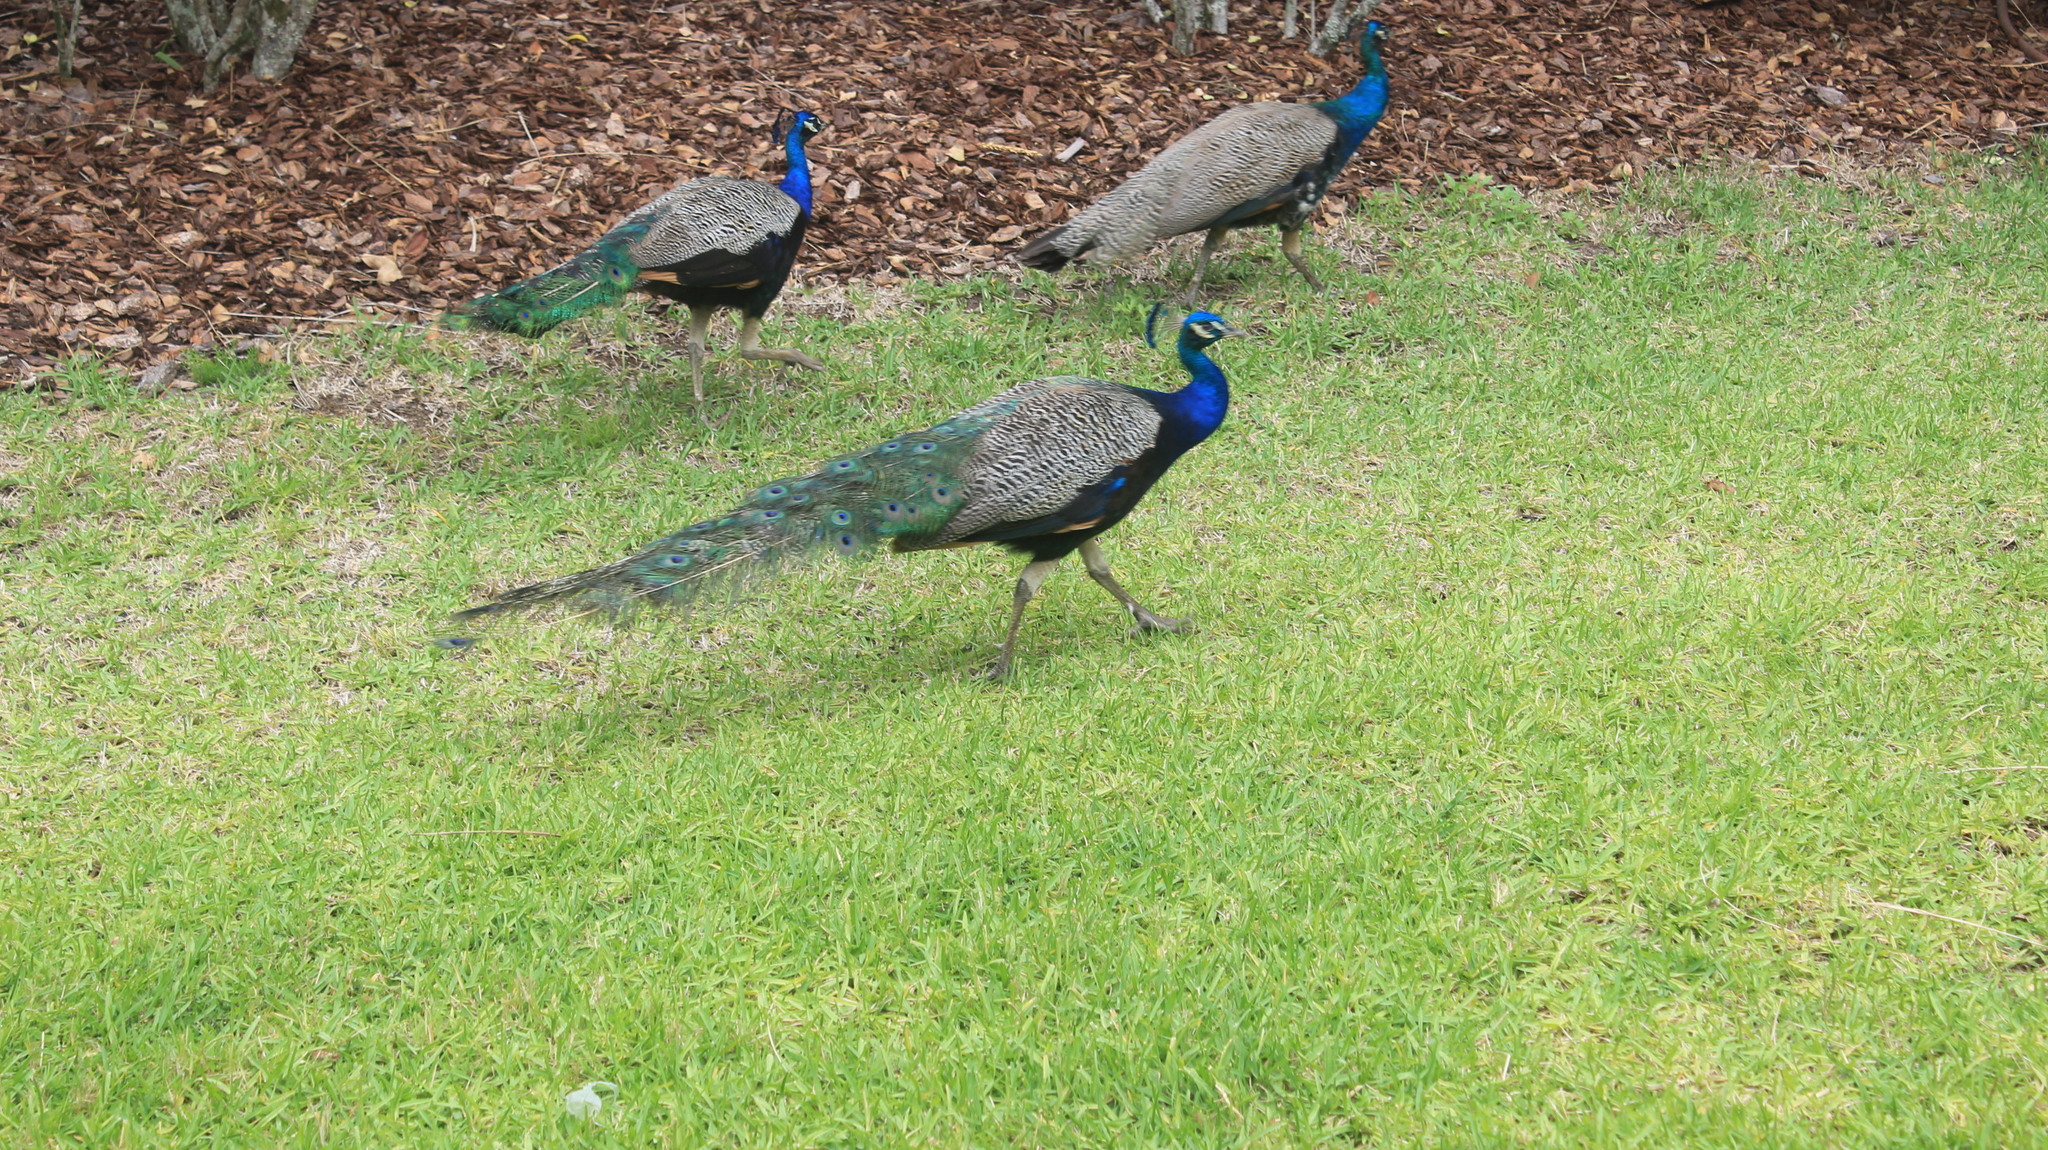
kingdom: Animalia
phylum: Chordata
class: Aves
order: Galliformes
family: Phasianidae
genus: Pavo
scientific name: Pavo cristatus
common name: Indian peafowl
